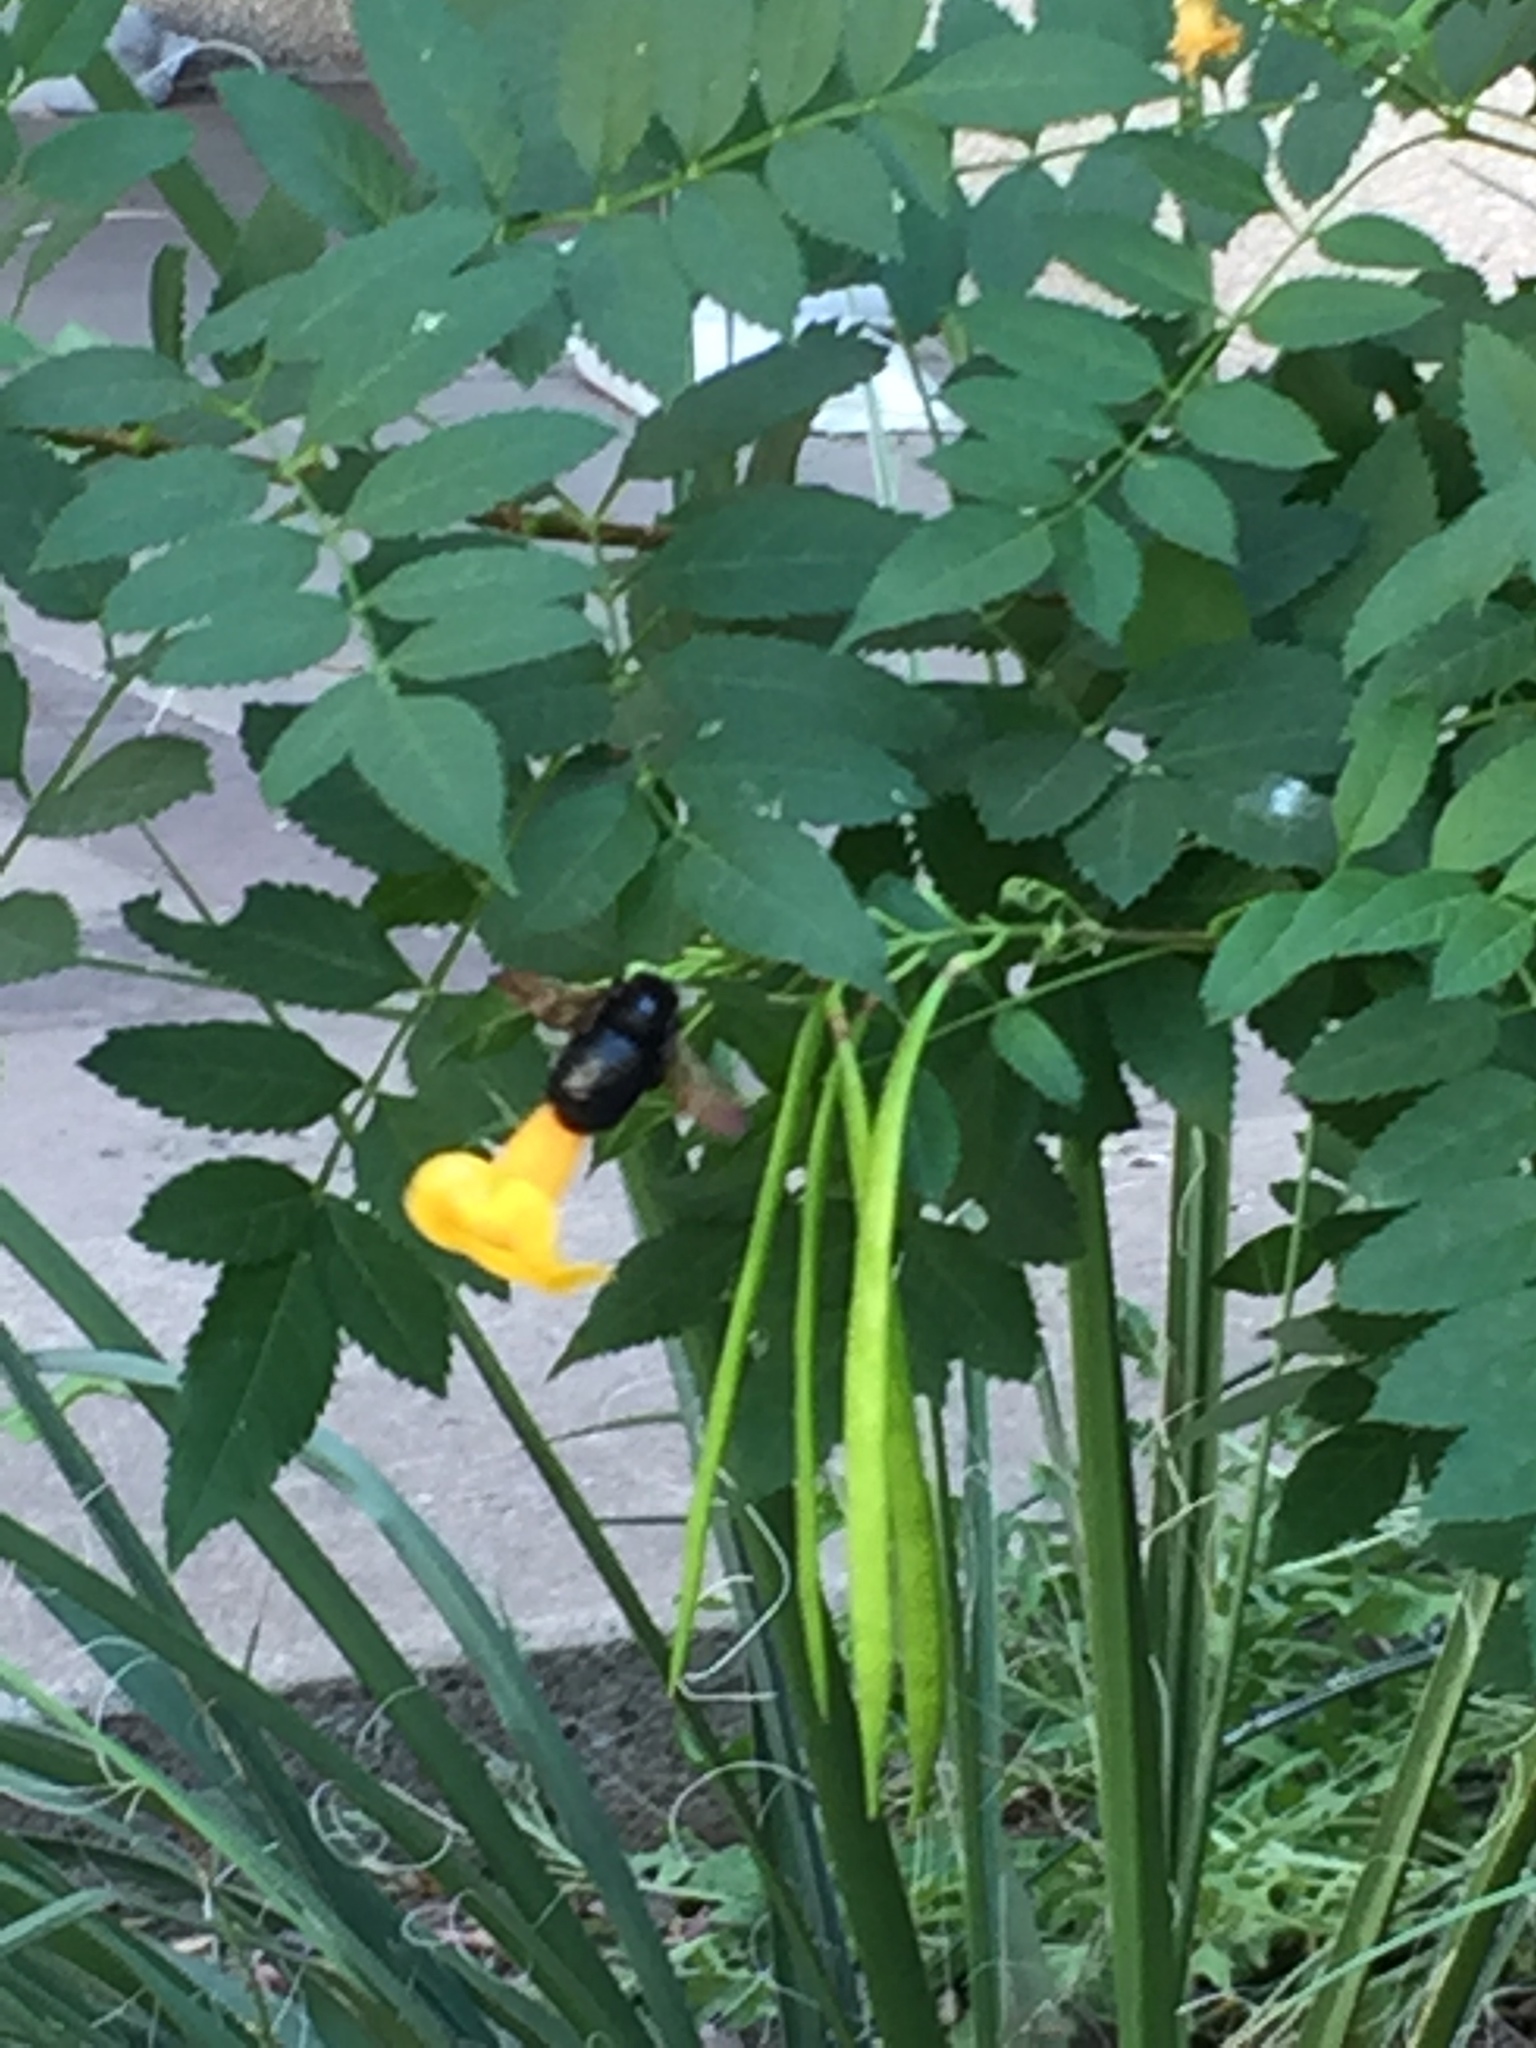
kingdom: Animalia
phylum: Arthropoda
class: Insecta
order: Hymenoptera
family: Apidae
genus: Xylocopa
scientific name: Xylocopa sonorina
